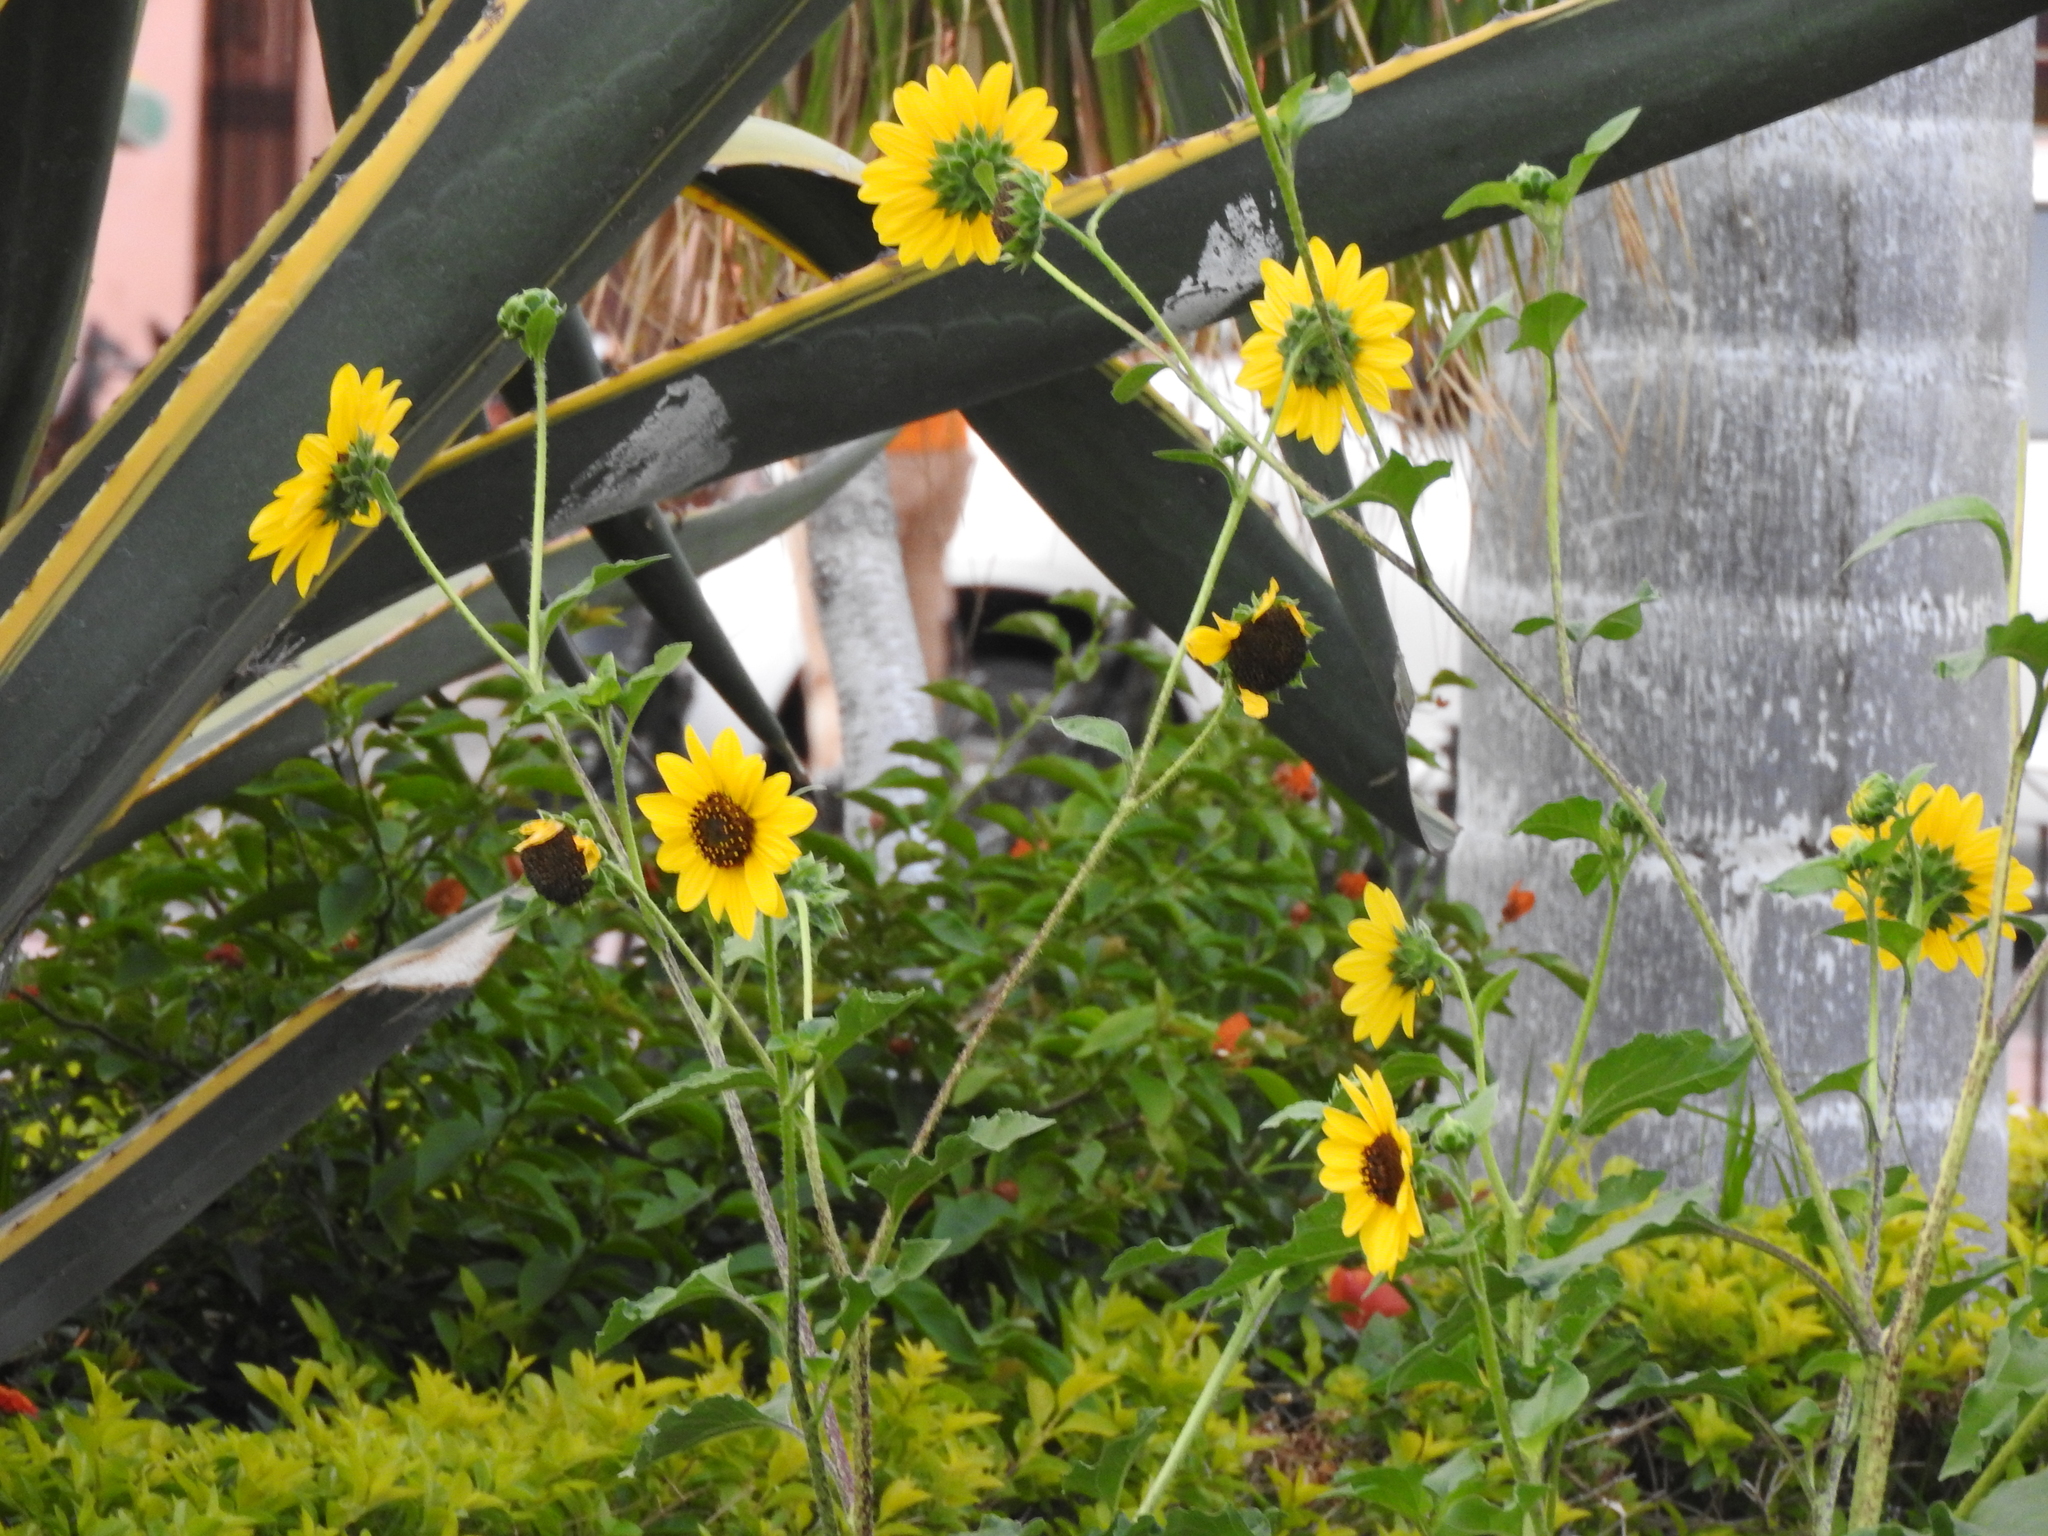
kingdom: Plantae
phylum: Tracheophyta
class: Magnoliopsida
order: Asterales
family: Asteraceae
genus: Helianthus
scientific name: Helianthus annuus
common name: Sunflower
